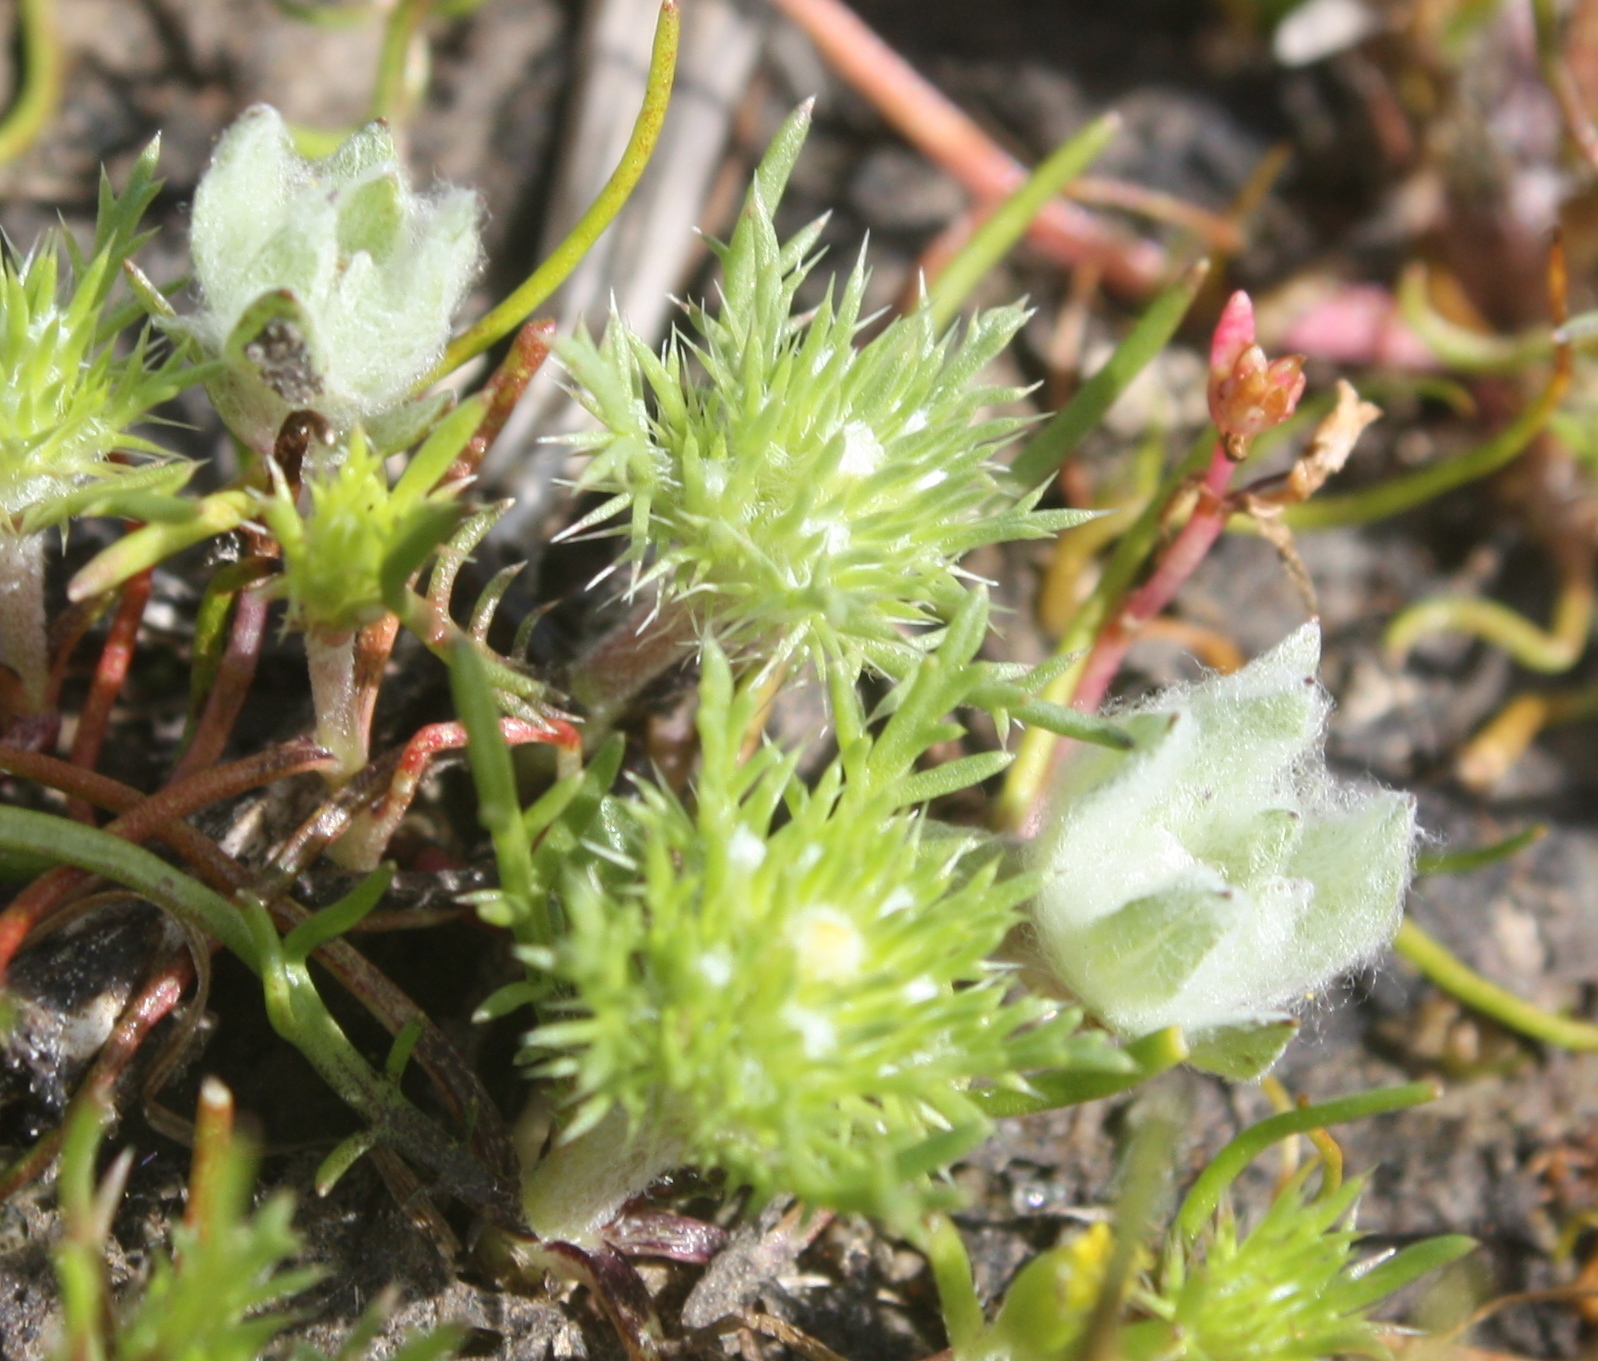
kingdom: Plantae
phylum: Tracheophyta
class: Magnoliopsida
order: Ericales
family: Polemoniaceae
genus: Navarretia
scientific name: Navarretia leucocephala
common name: White-flowered navarretia
